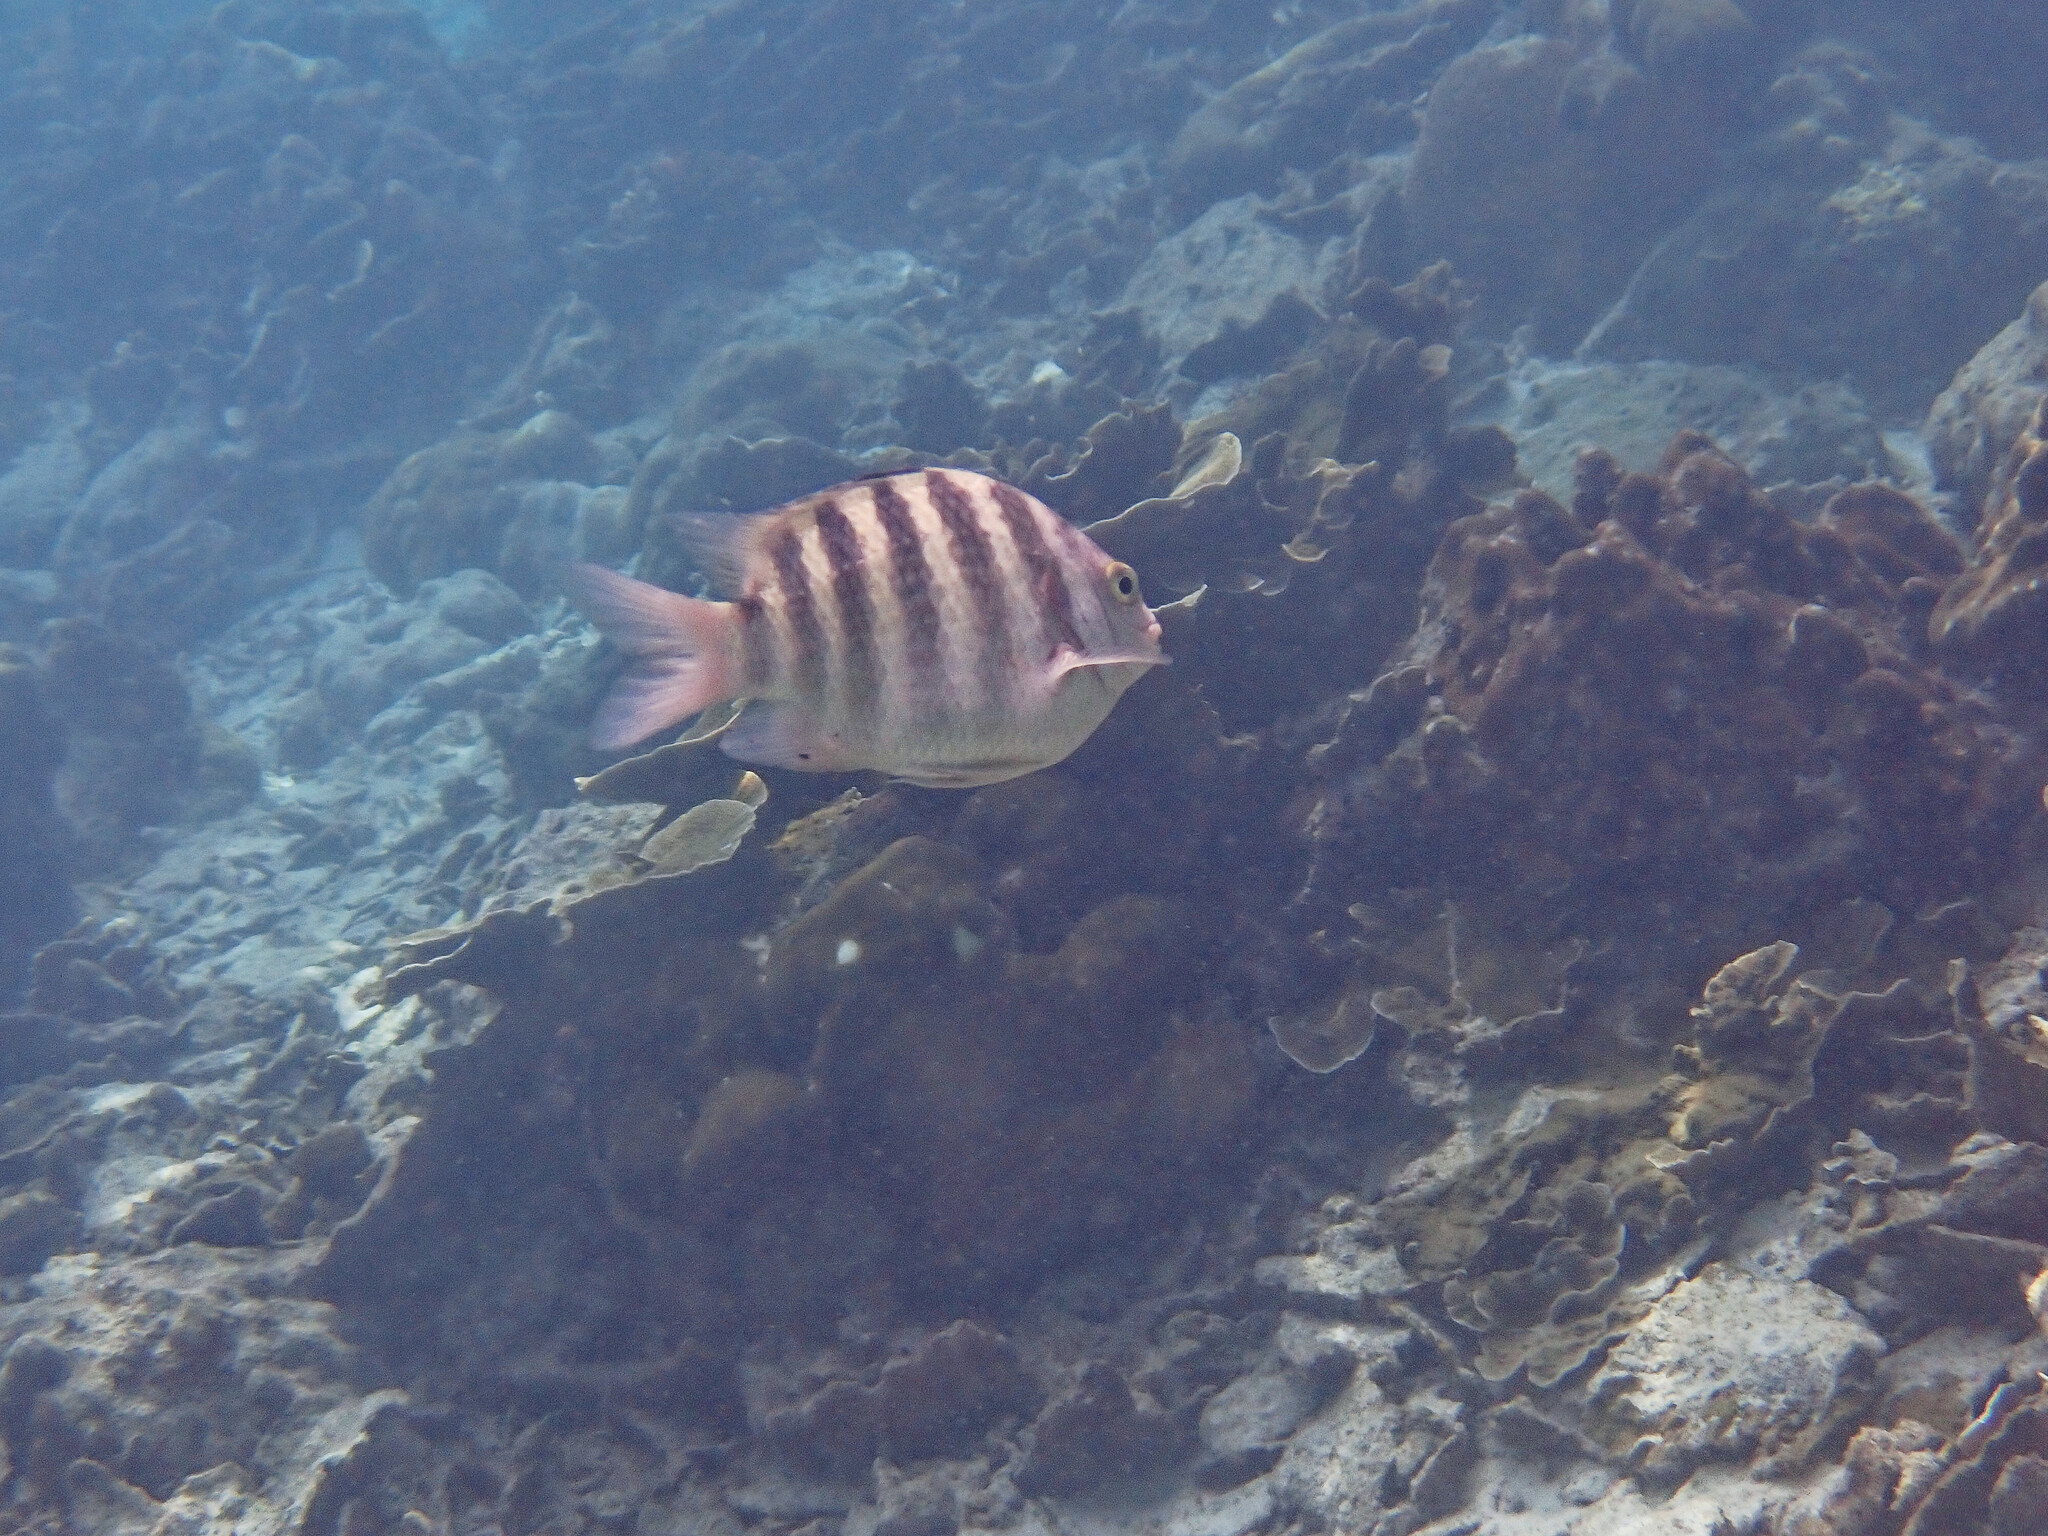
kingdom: Animalia
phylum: Chordata
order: Perciformes
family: Pomacentridae
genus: Abudefduf
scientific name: Abudefduf septemfasciatus
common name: Banded sergeant
